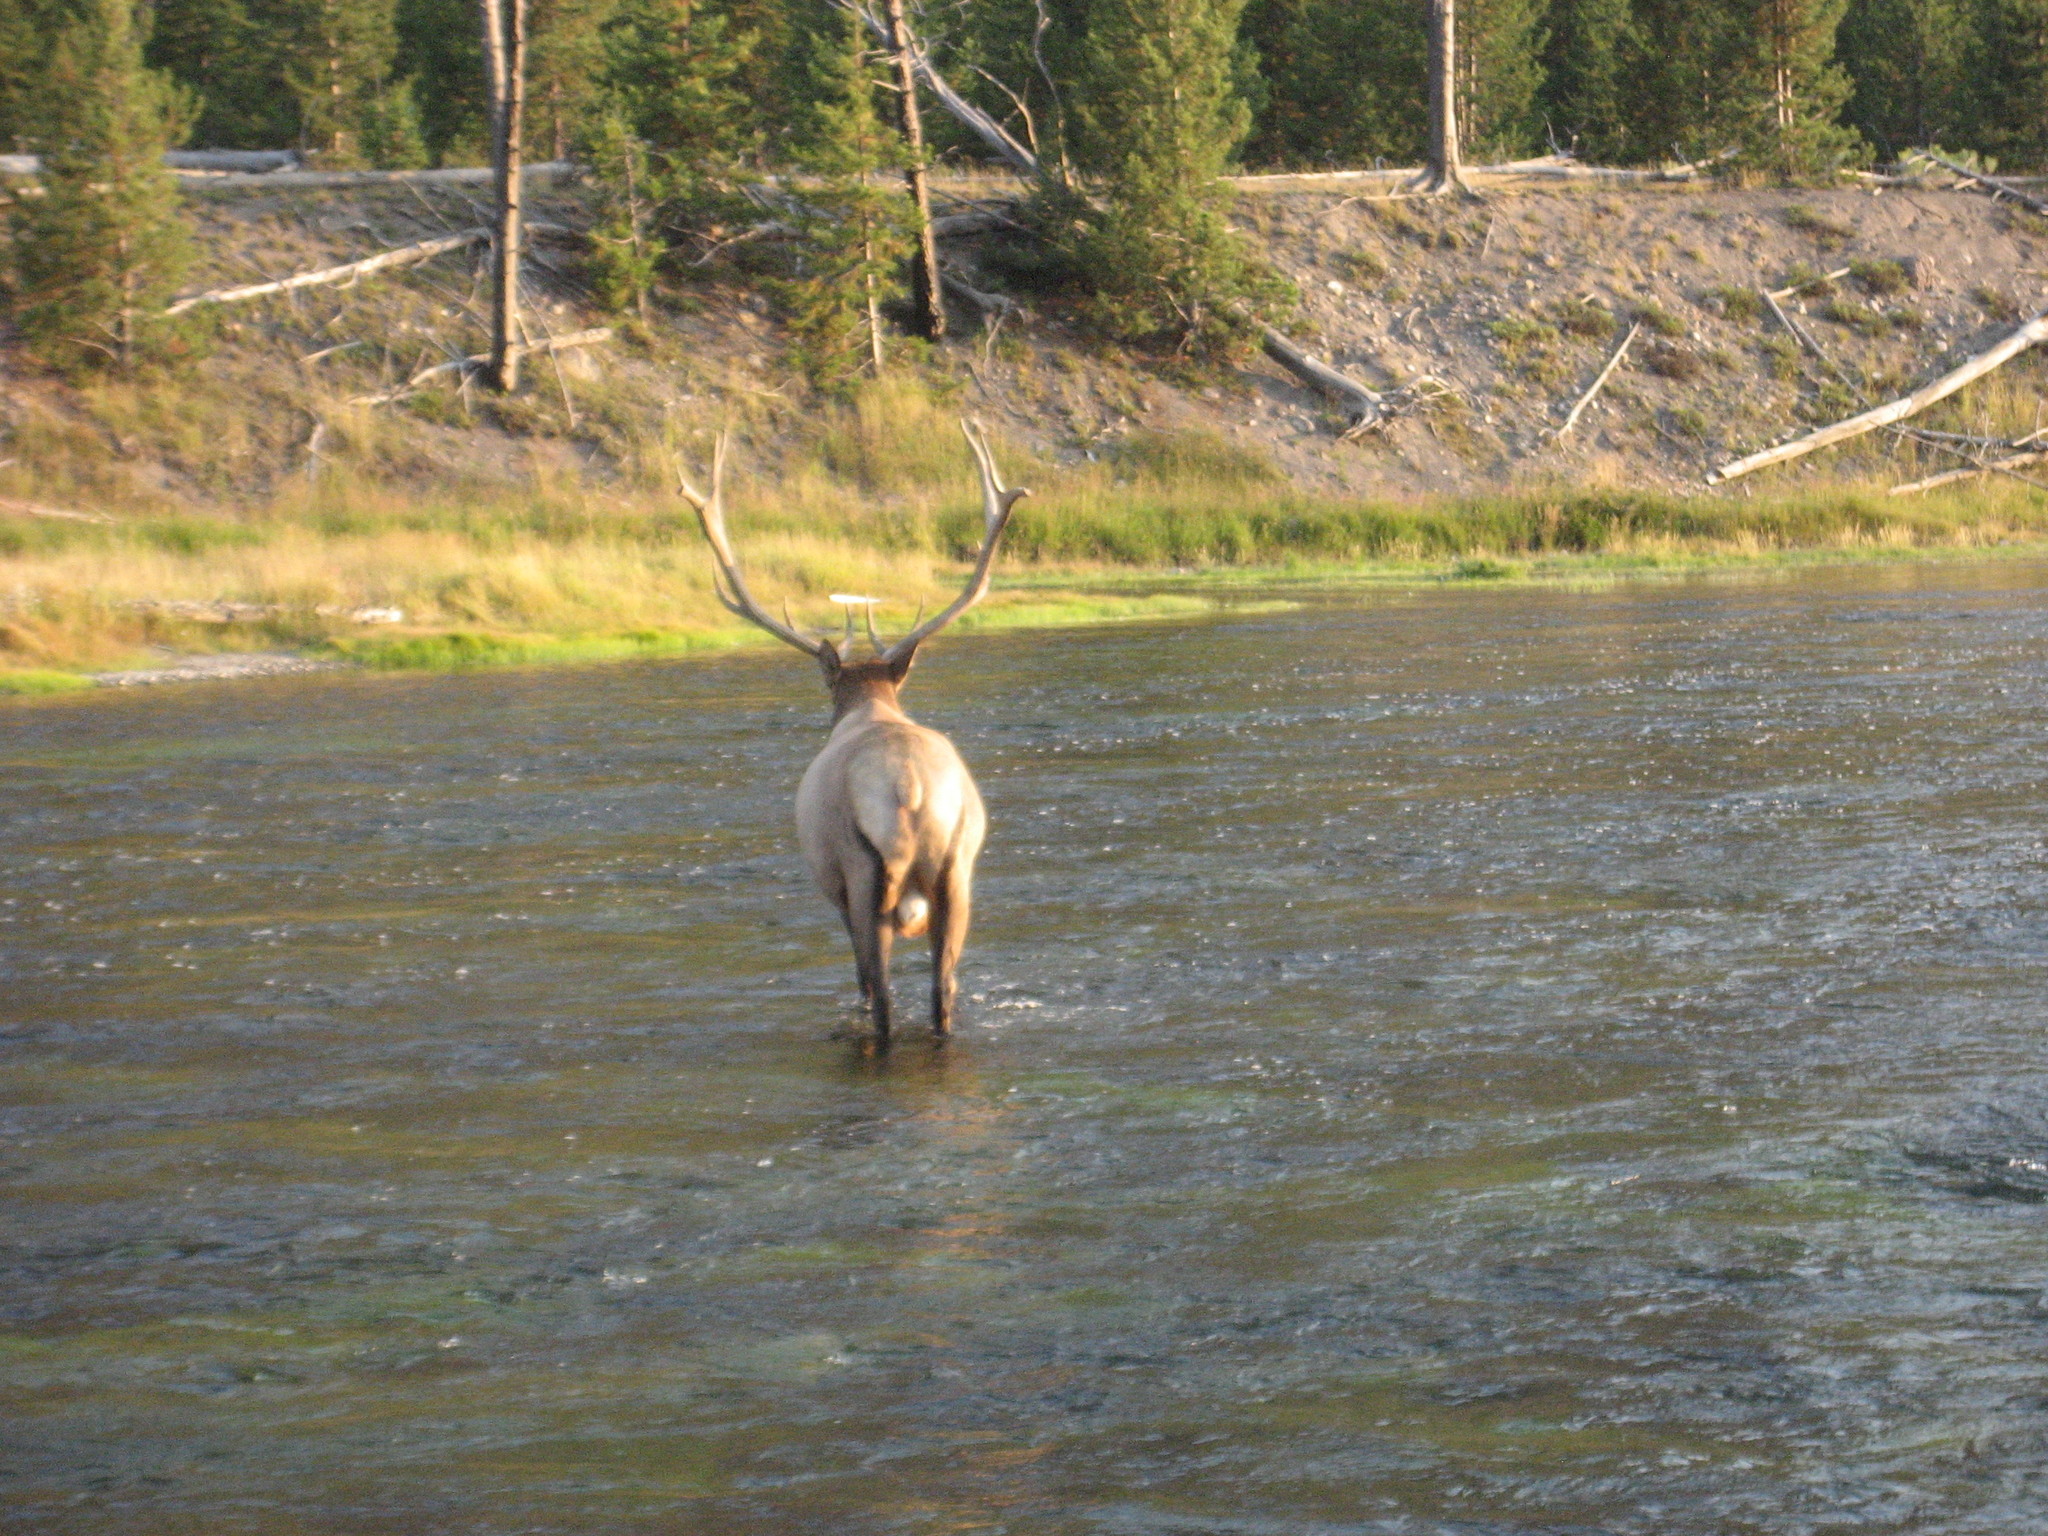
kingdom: Animalia
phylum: Chordata
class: Mammalia
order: Artiodactyla
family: Cervidae
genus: Cervus
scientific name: Cervus elaphus
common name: Red deer
